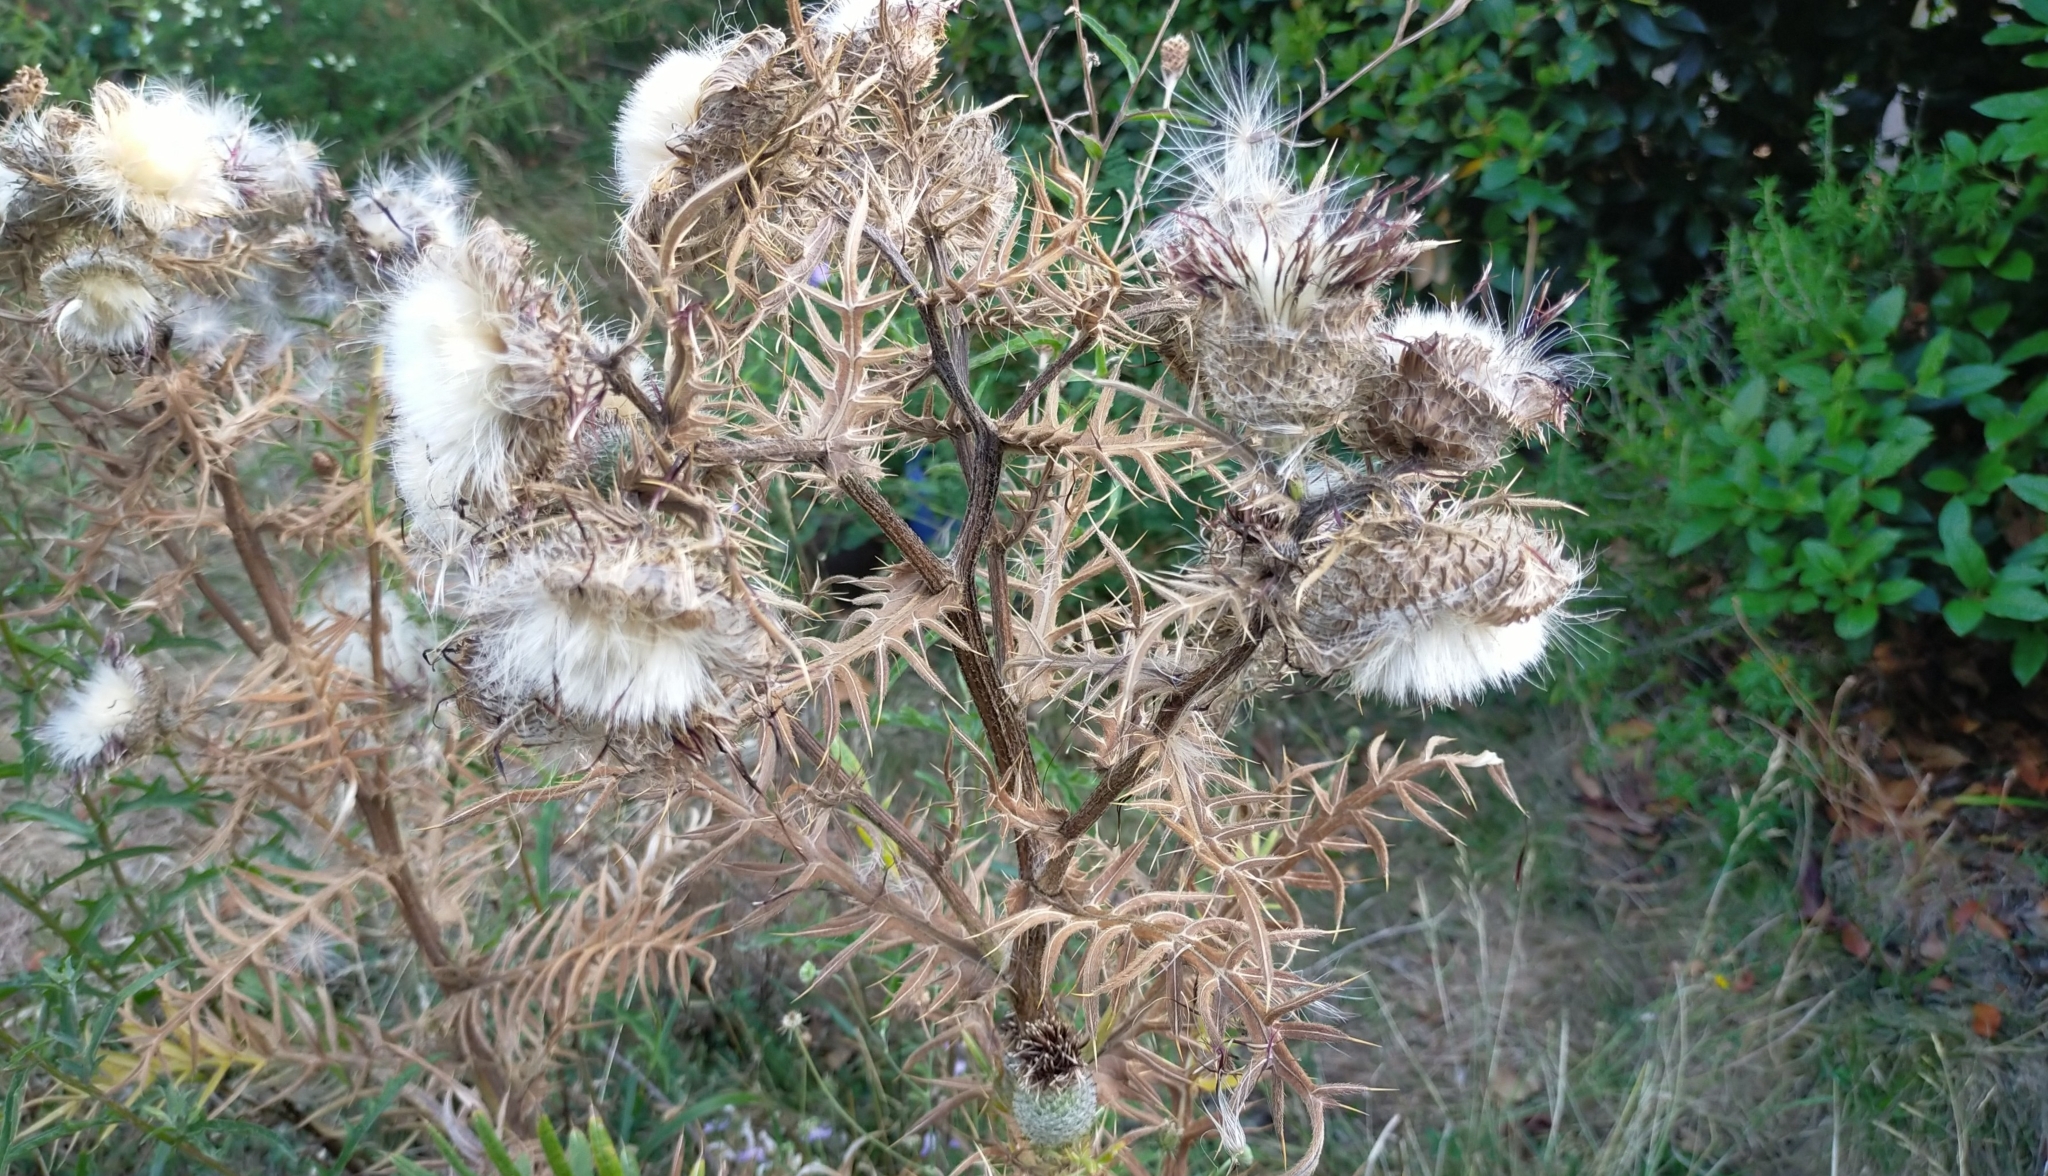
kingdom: Plantae
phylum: Tracheophyta
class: Magnoliopsida
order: Asterales
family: Asteraceae
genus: Cirsium
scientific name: Cirsium vulgare
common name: Bull thistle
